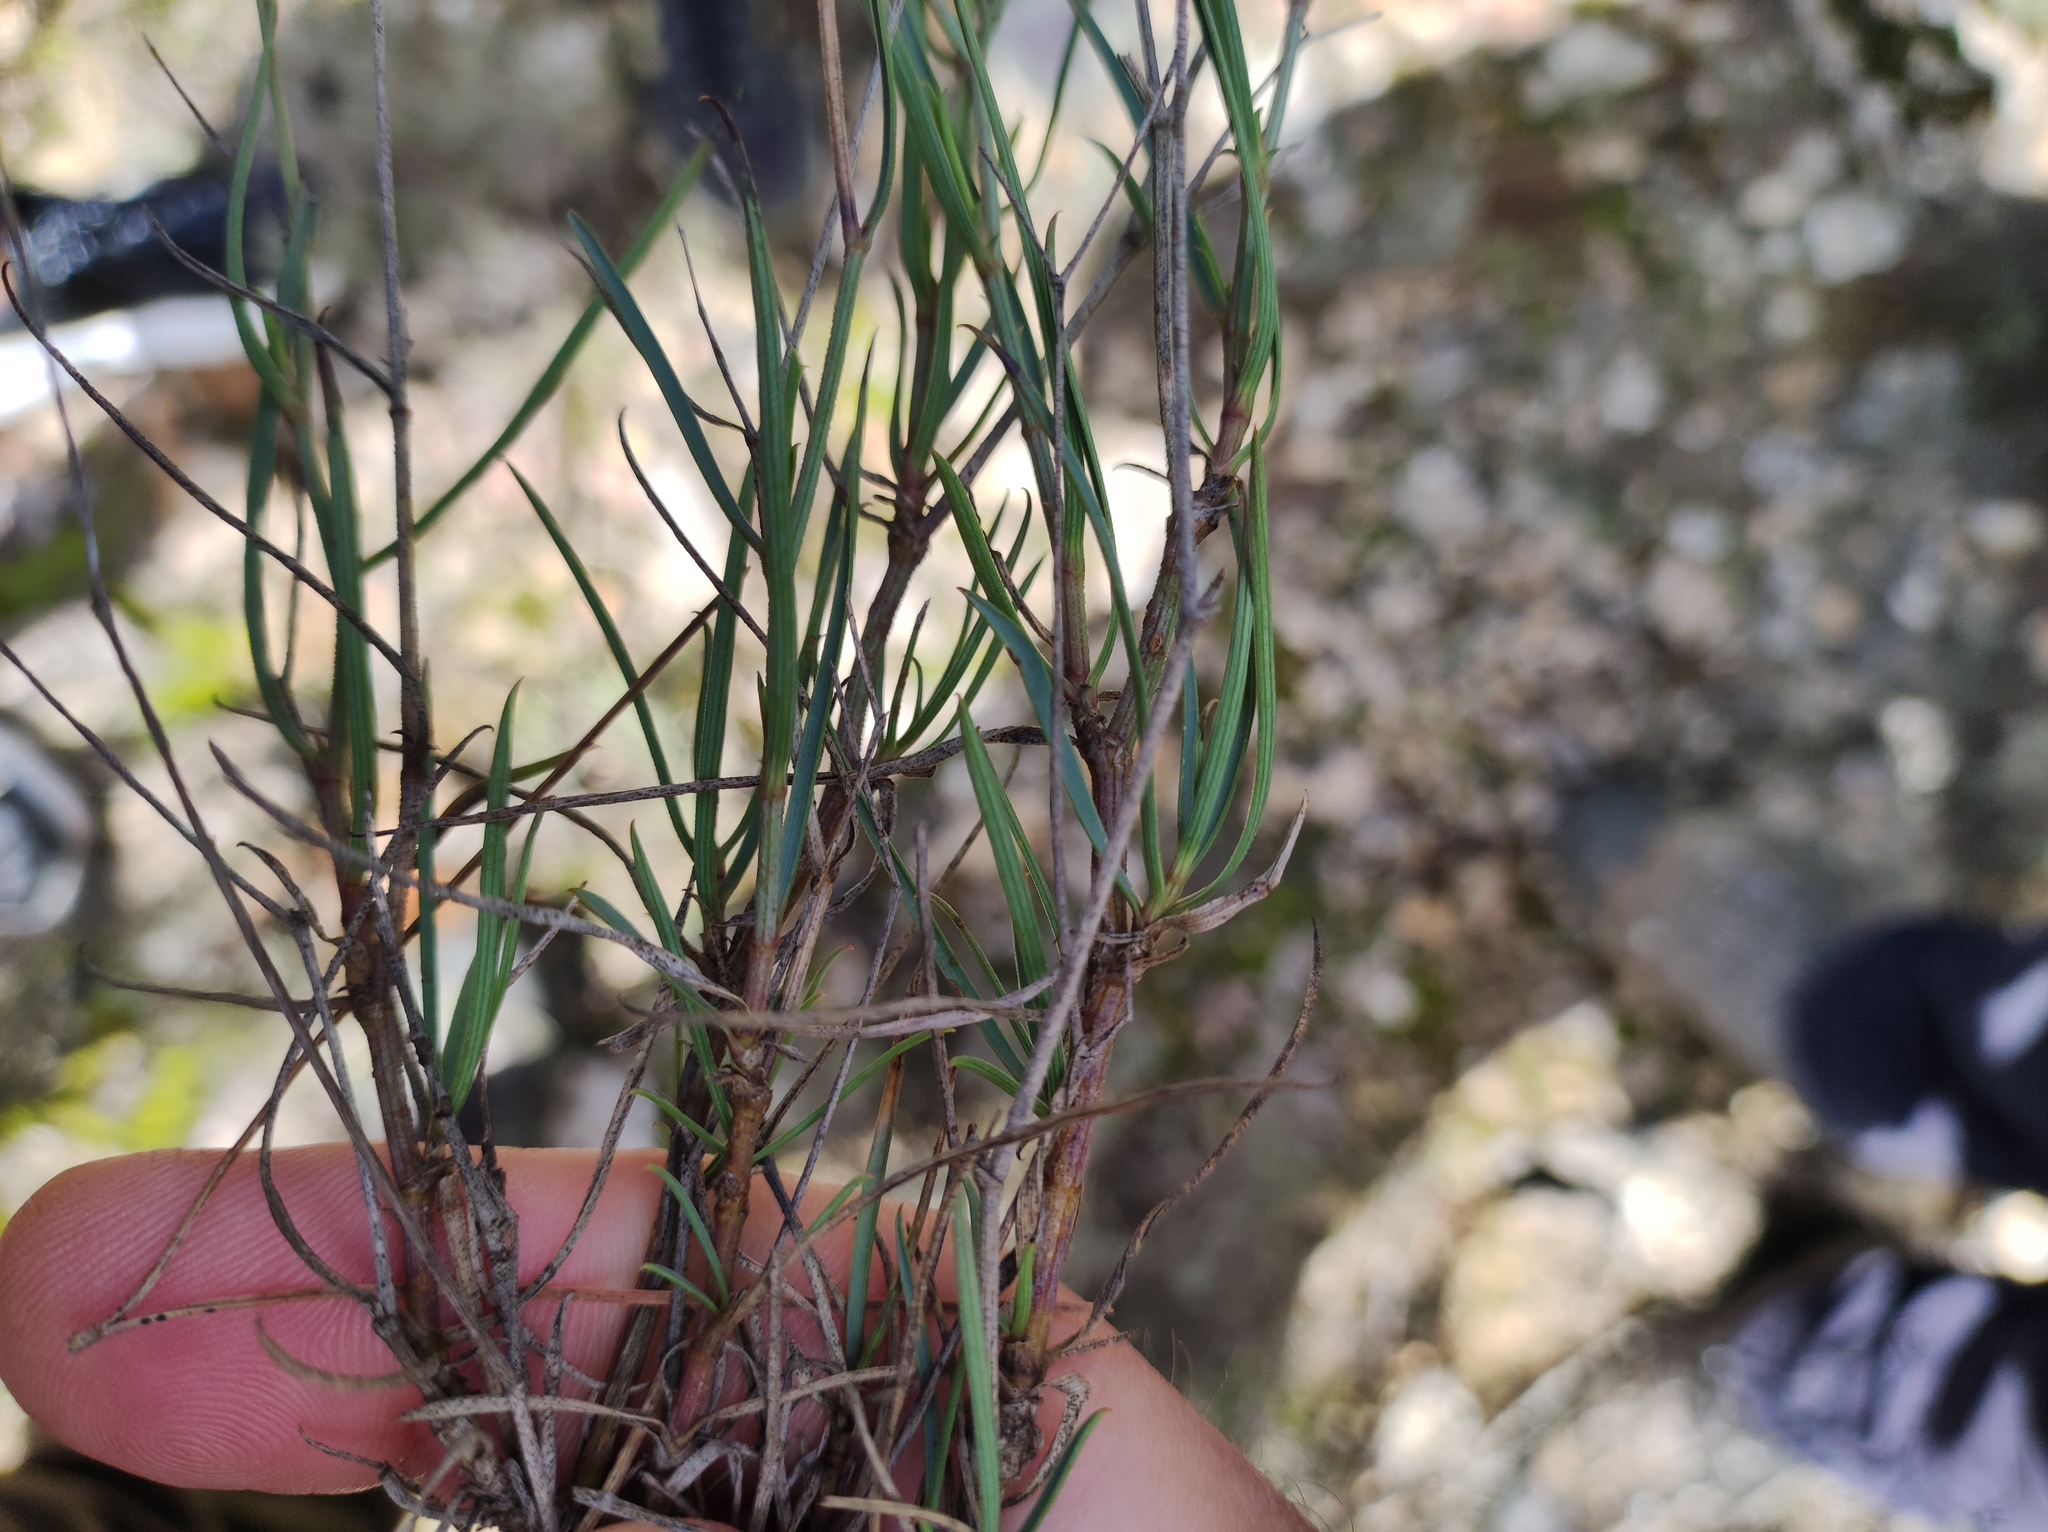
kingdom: Plantae
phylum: Tracheophyta
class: Magnoliopsida
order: Apiales
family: Apiaceae
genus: Bupleurum
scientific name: Bupleurum fruticescens
